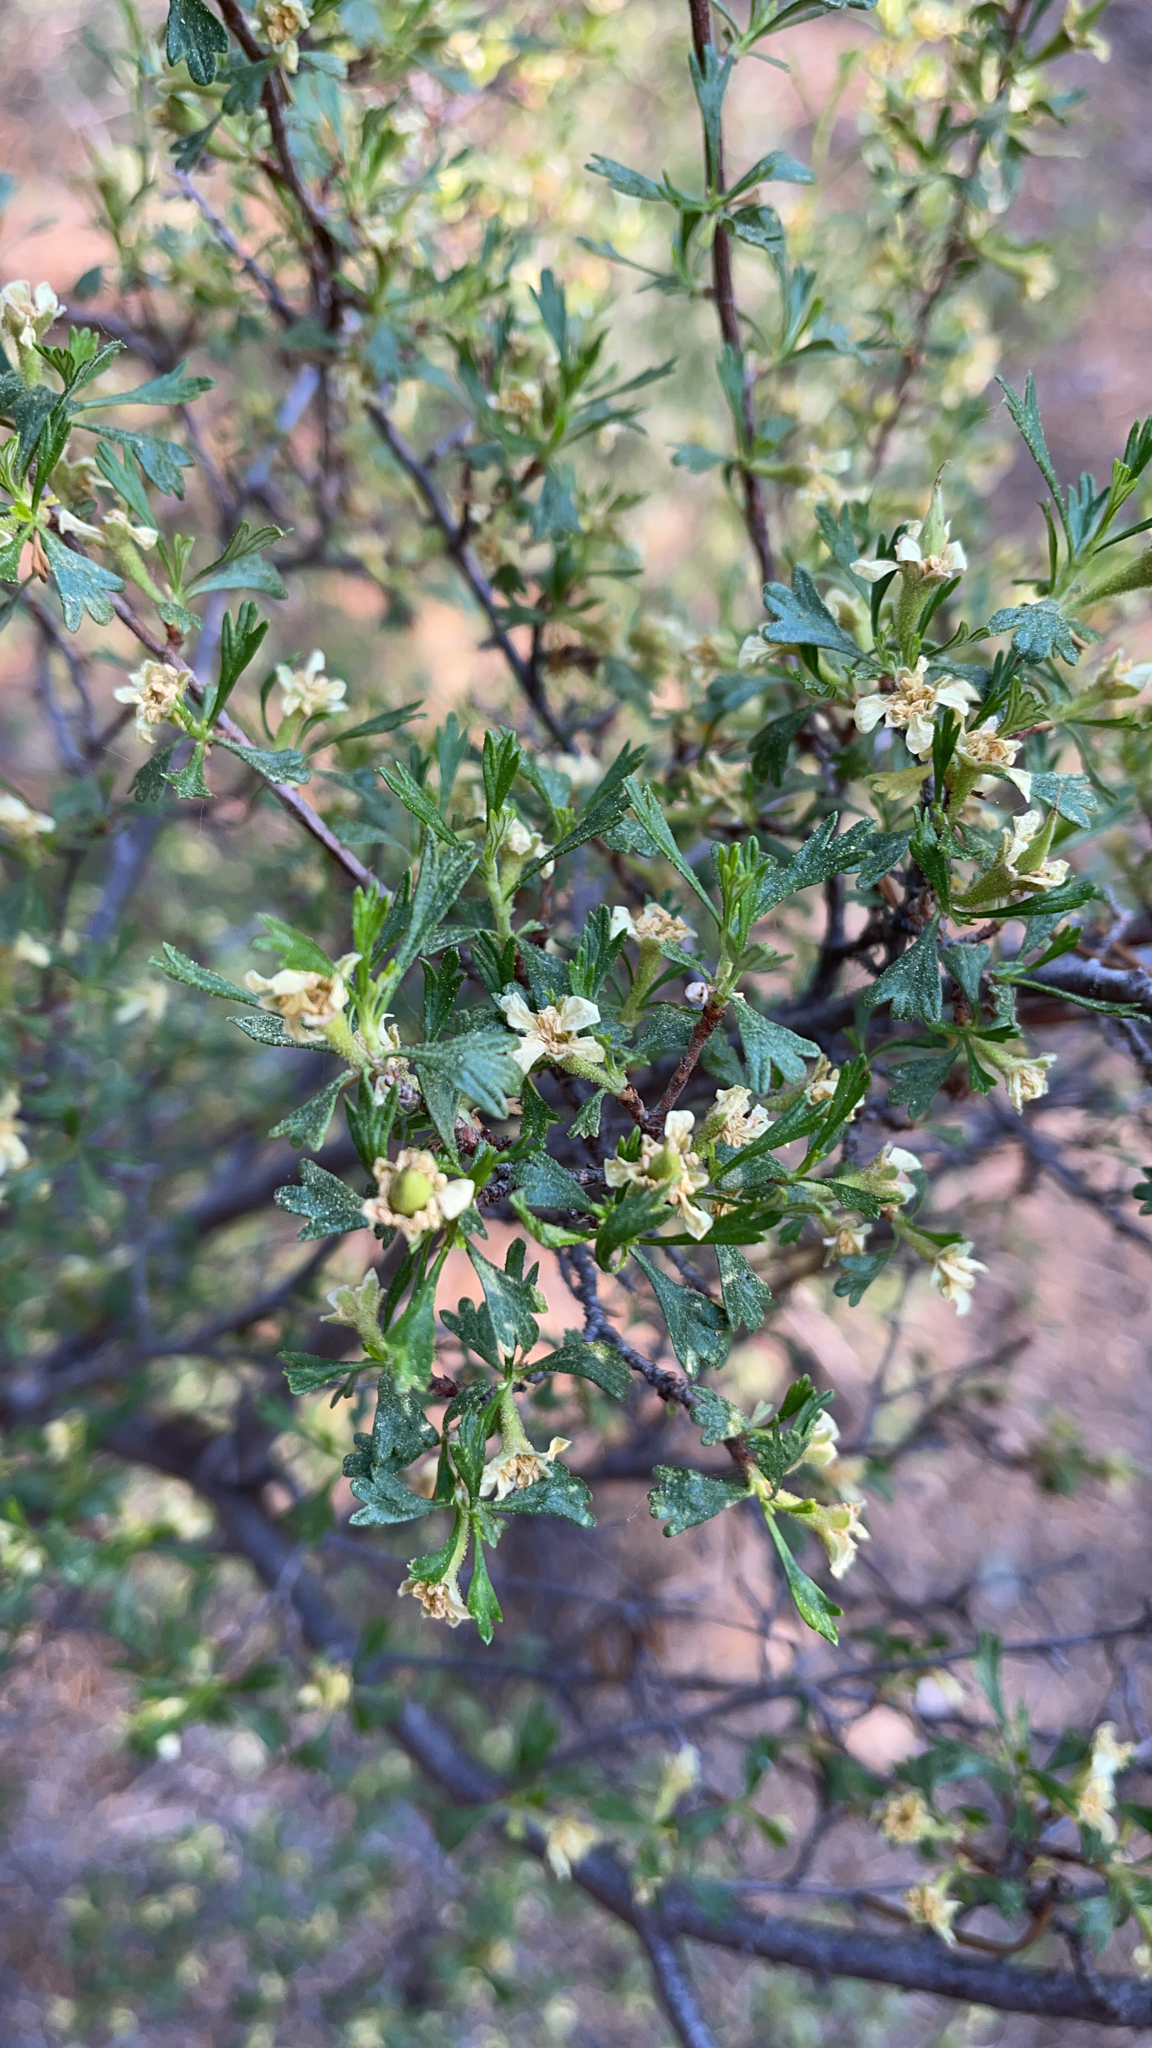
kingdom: Plantae
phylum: Tracheophyta
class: Magnoliopsida
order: Rosales
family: Rosaceae
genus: Purshia
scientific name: Purshia tridentata
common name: Antelope bitterbrush
